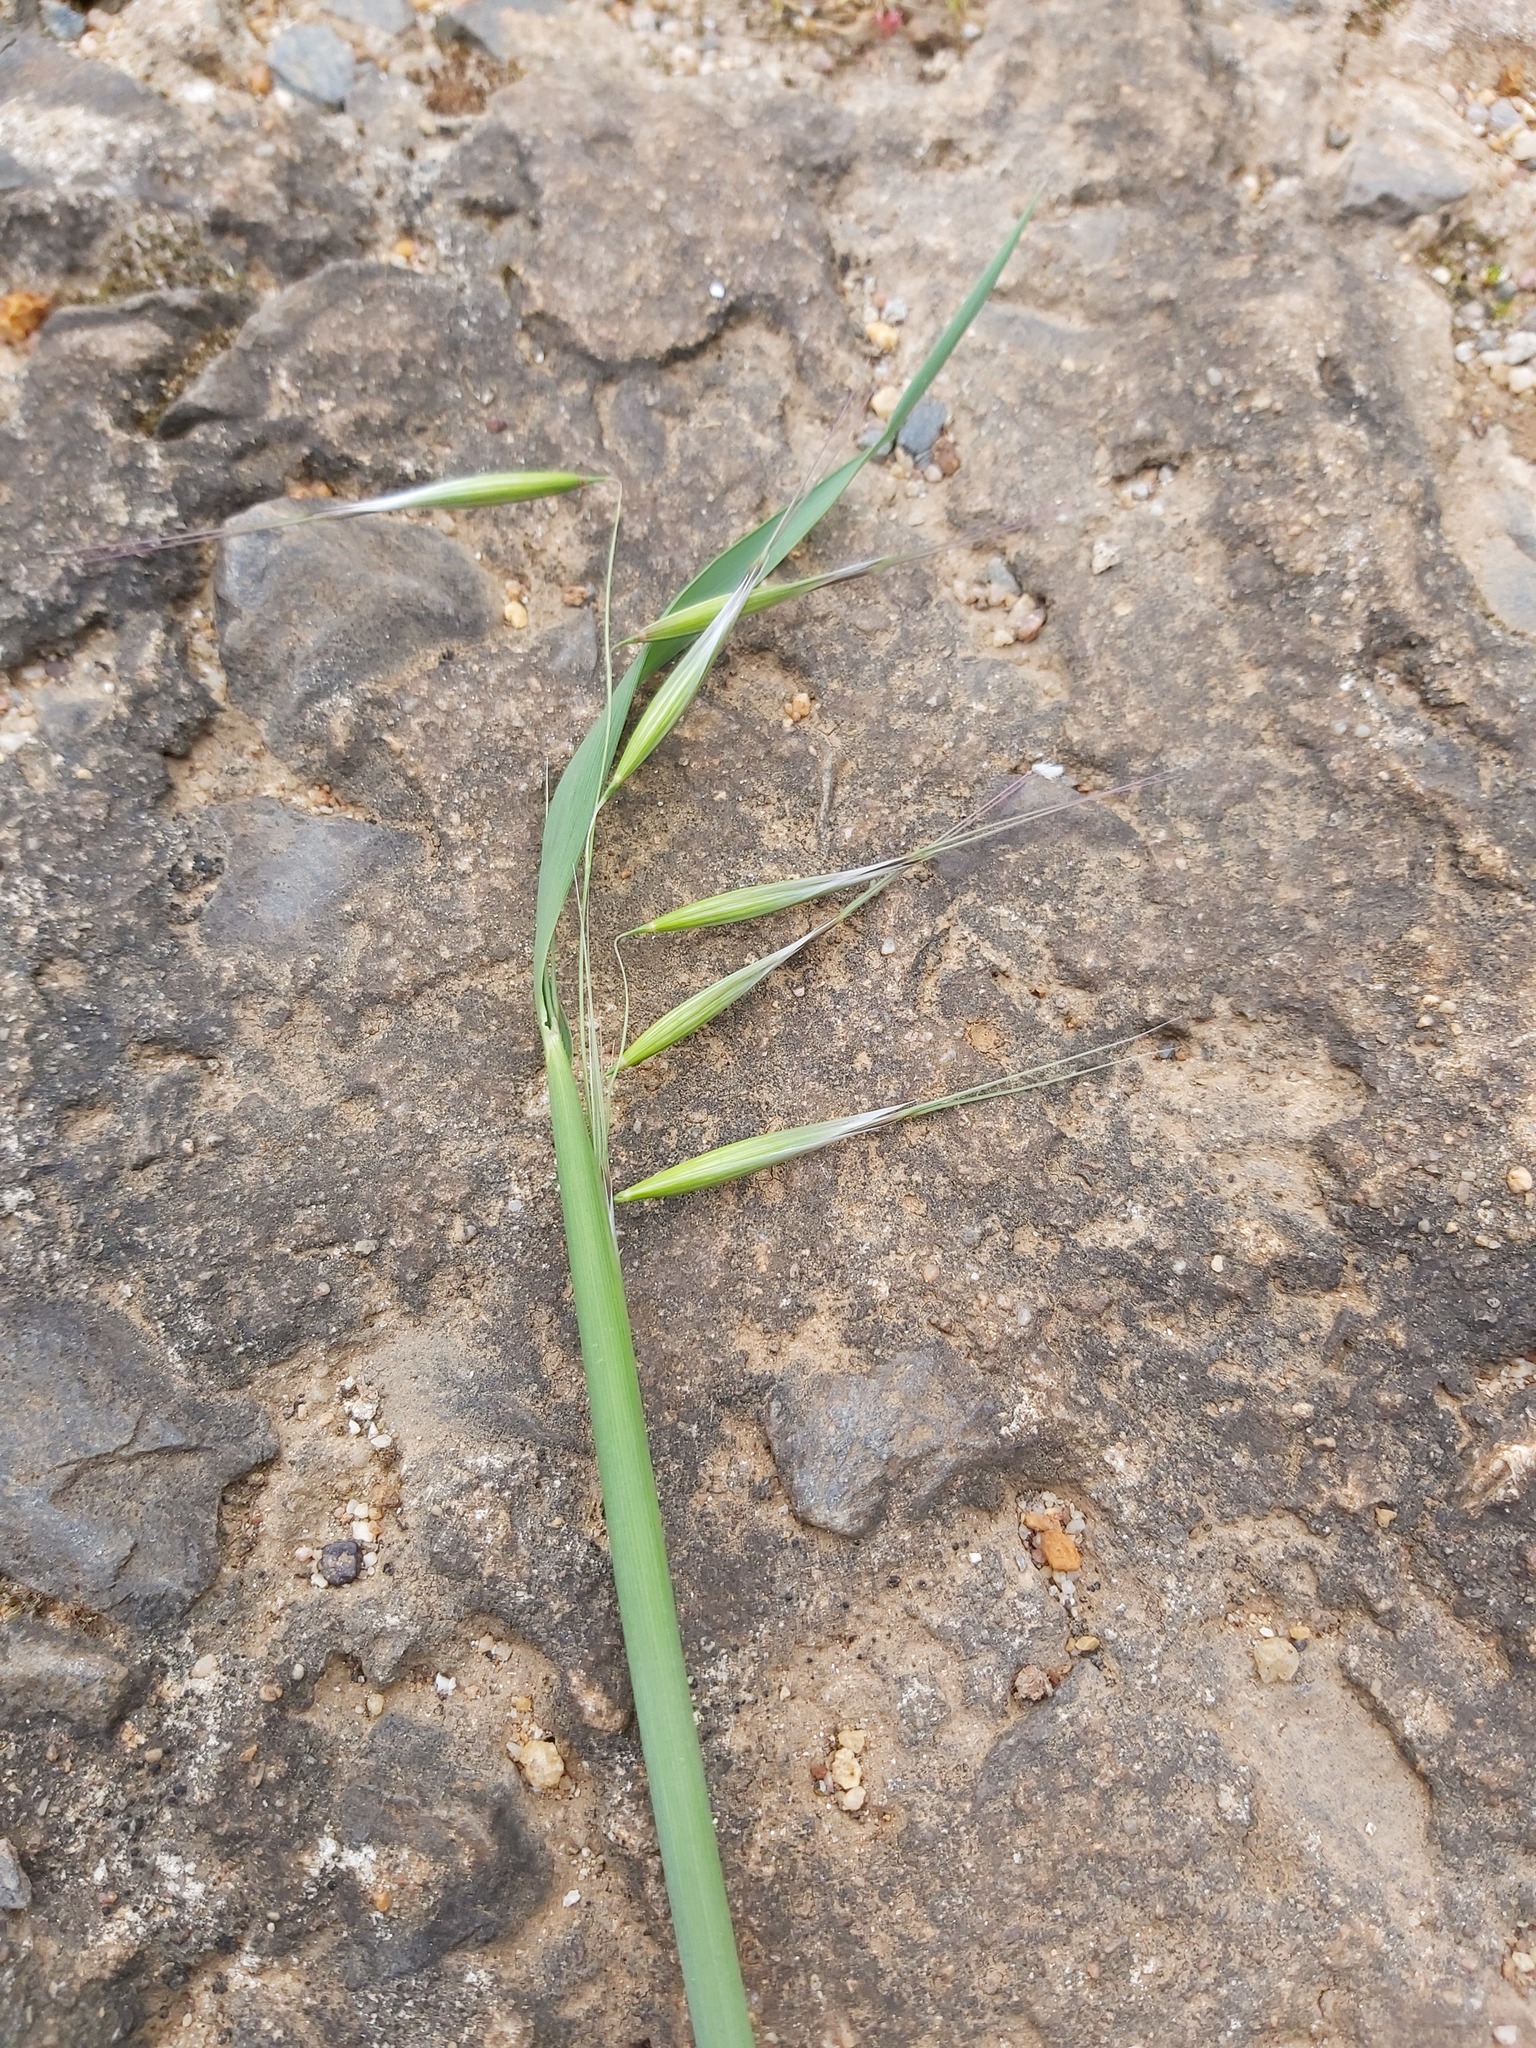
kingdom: Plantae
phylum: Tracheophyta
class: Liliopsida
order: Poales
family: Poaceae
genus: Avena
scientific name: Avena fatua
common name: Wild oat
